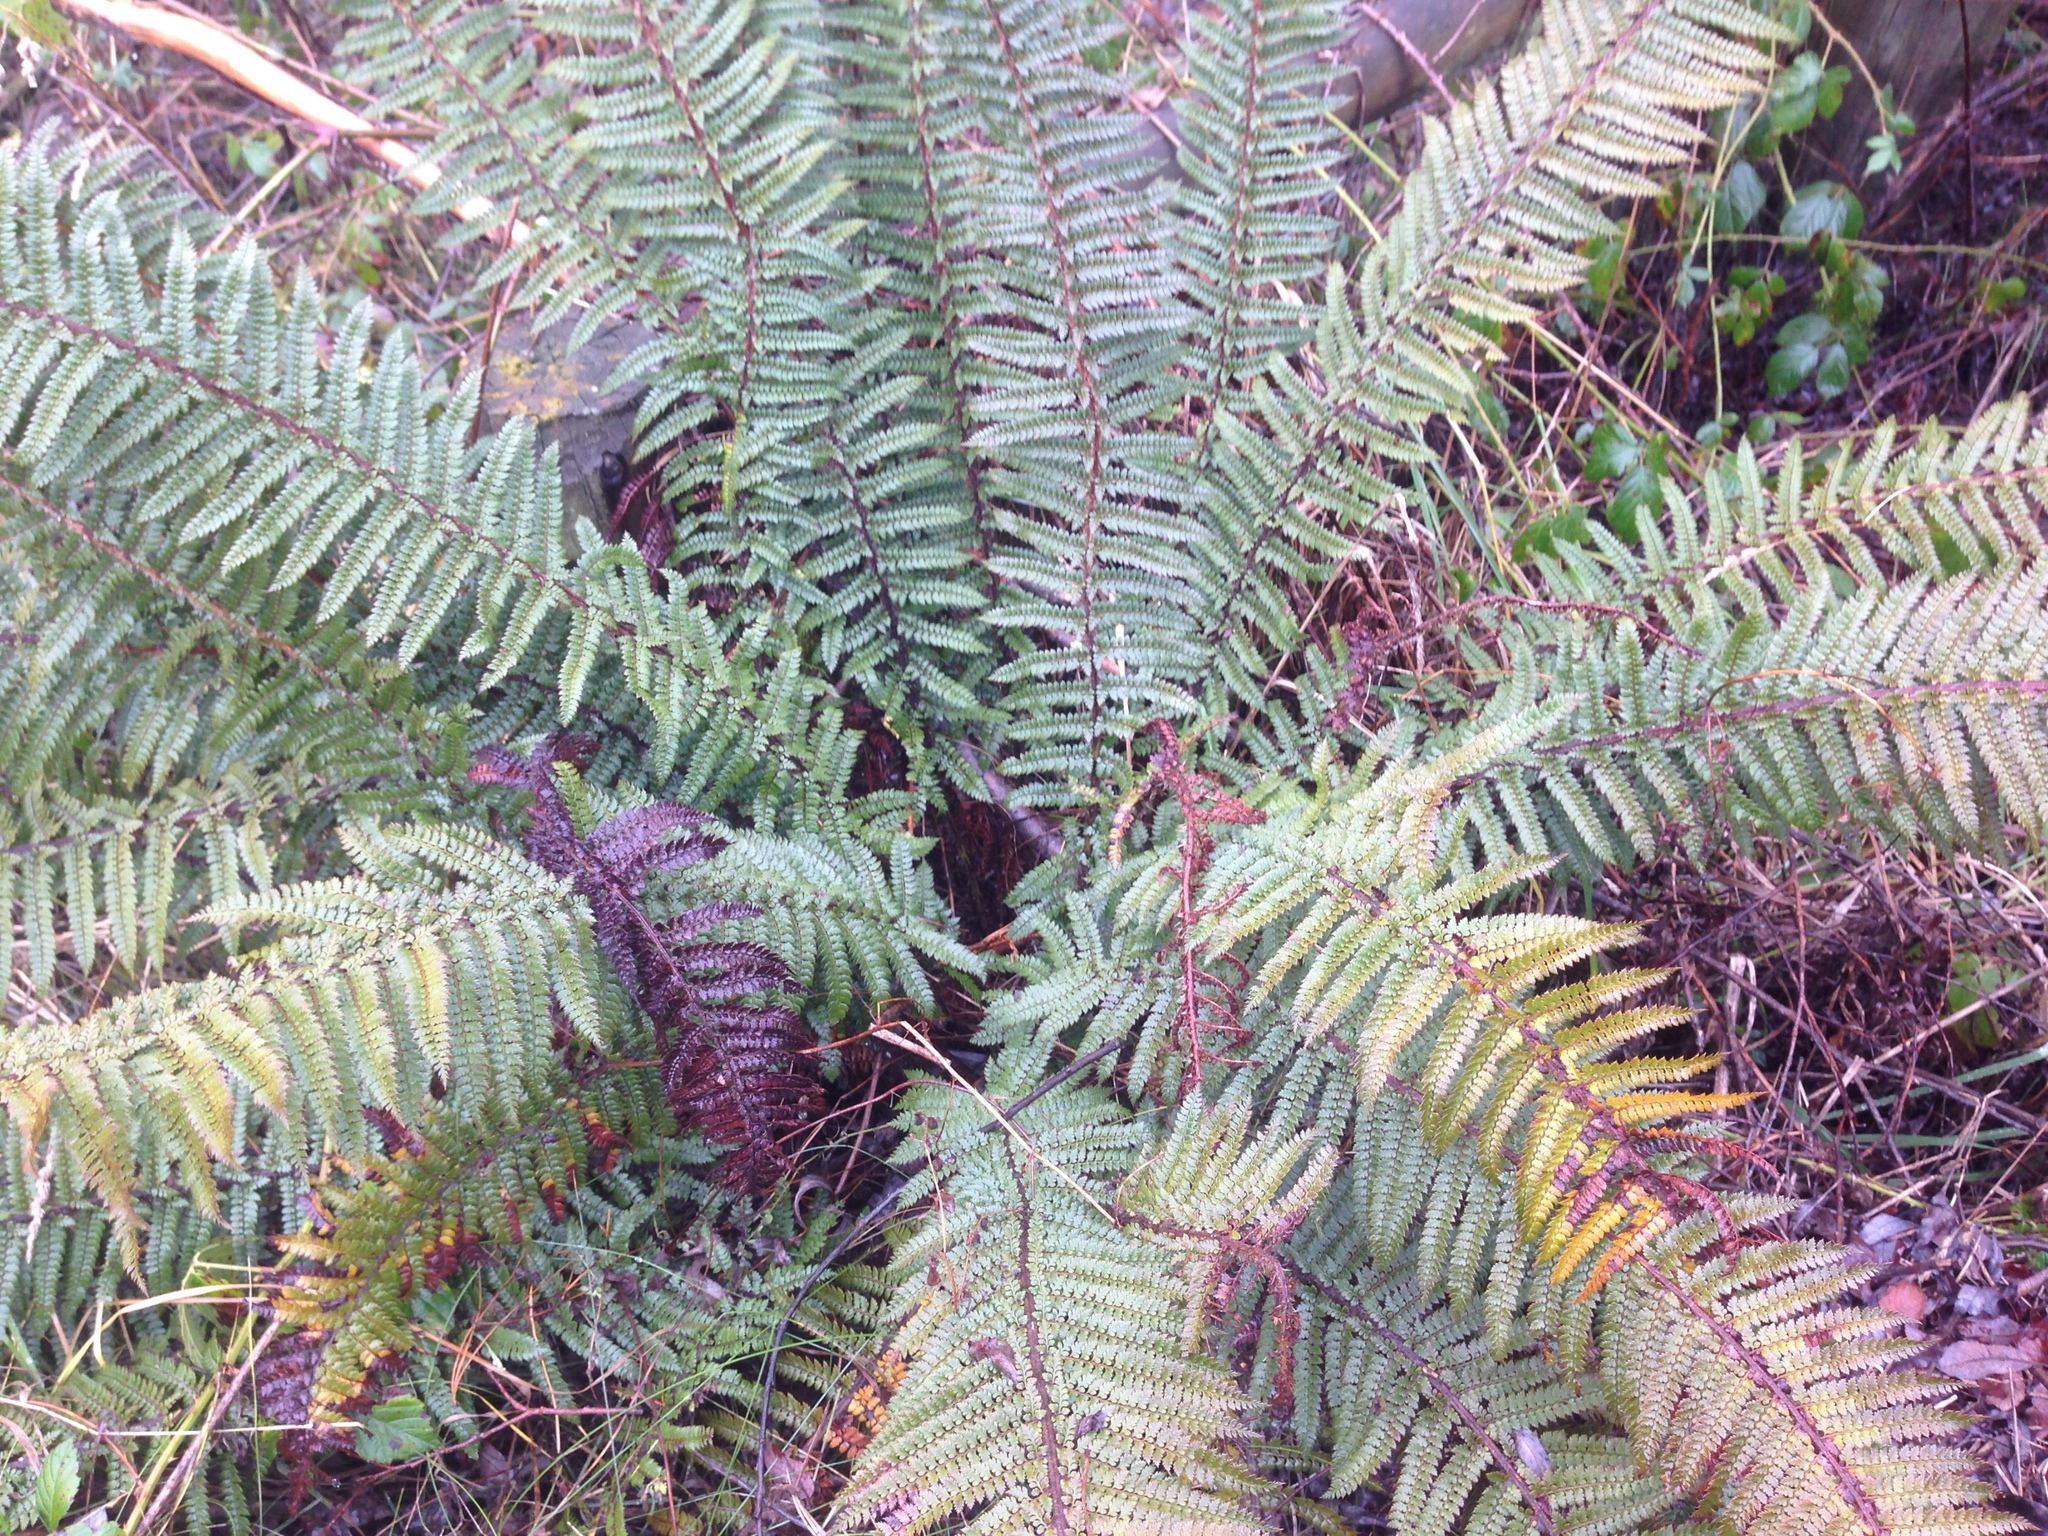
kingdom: Plantae
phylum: Tracheophyta
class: Polypodiopsida
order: Polypodiales
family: Dryopteridaceae
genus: Polystichum
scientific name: Polystichum vestitum
